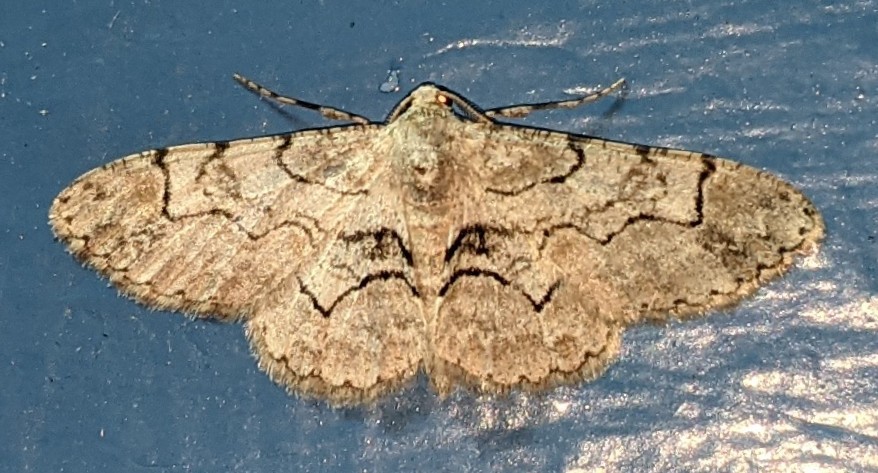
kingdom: Animalia
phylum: Arthropoda
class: Insecta
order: Lepidoptera
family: Geometridae
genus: Iridopsis
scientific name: Iridopsis larvaria
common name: Bent-line gray
